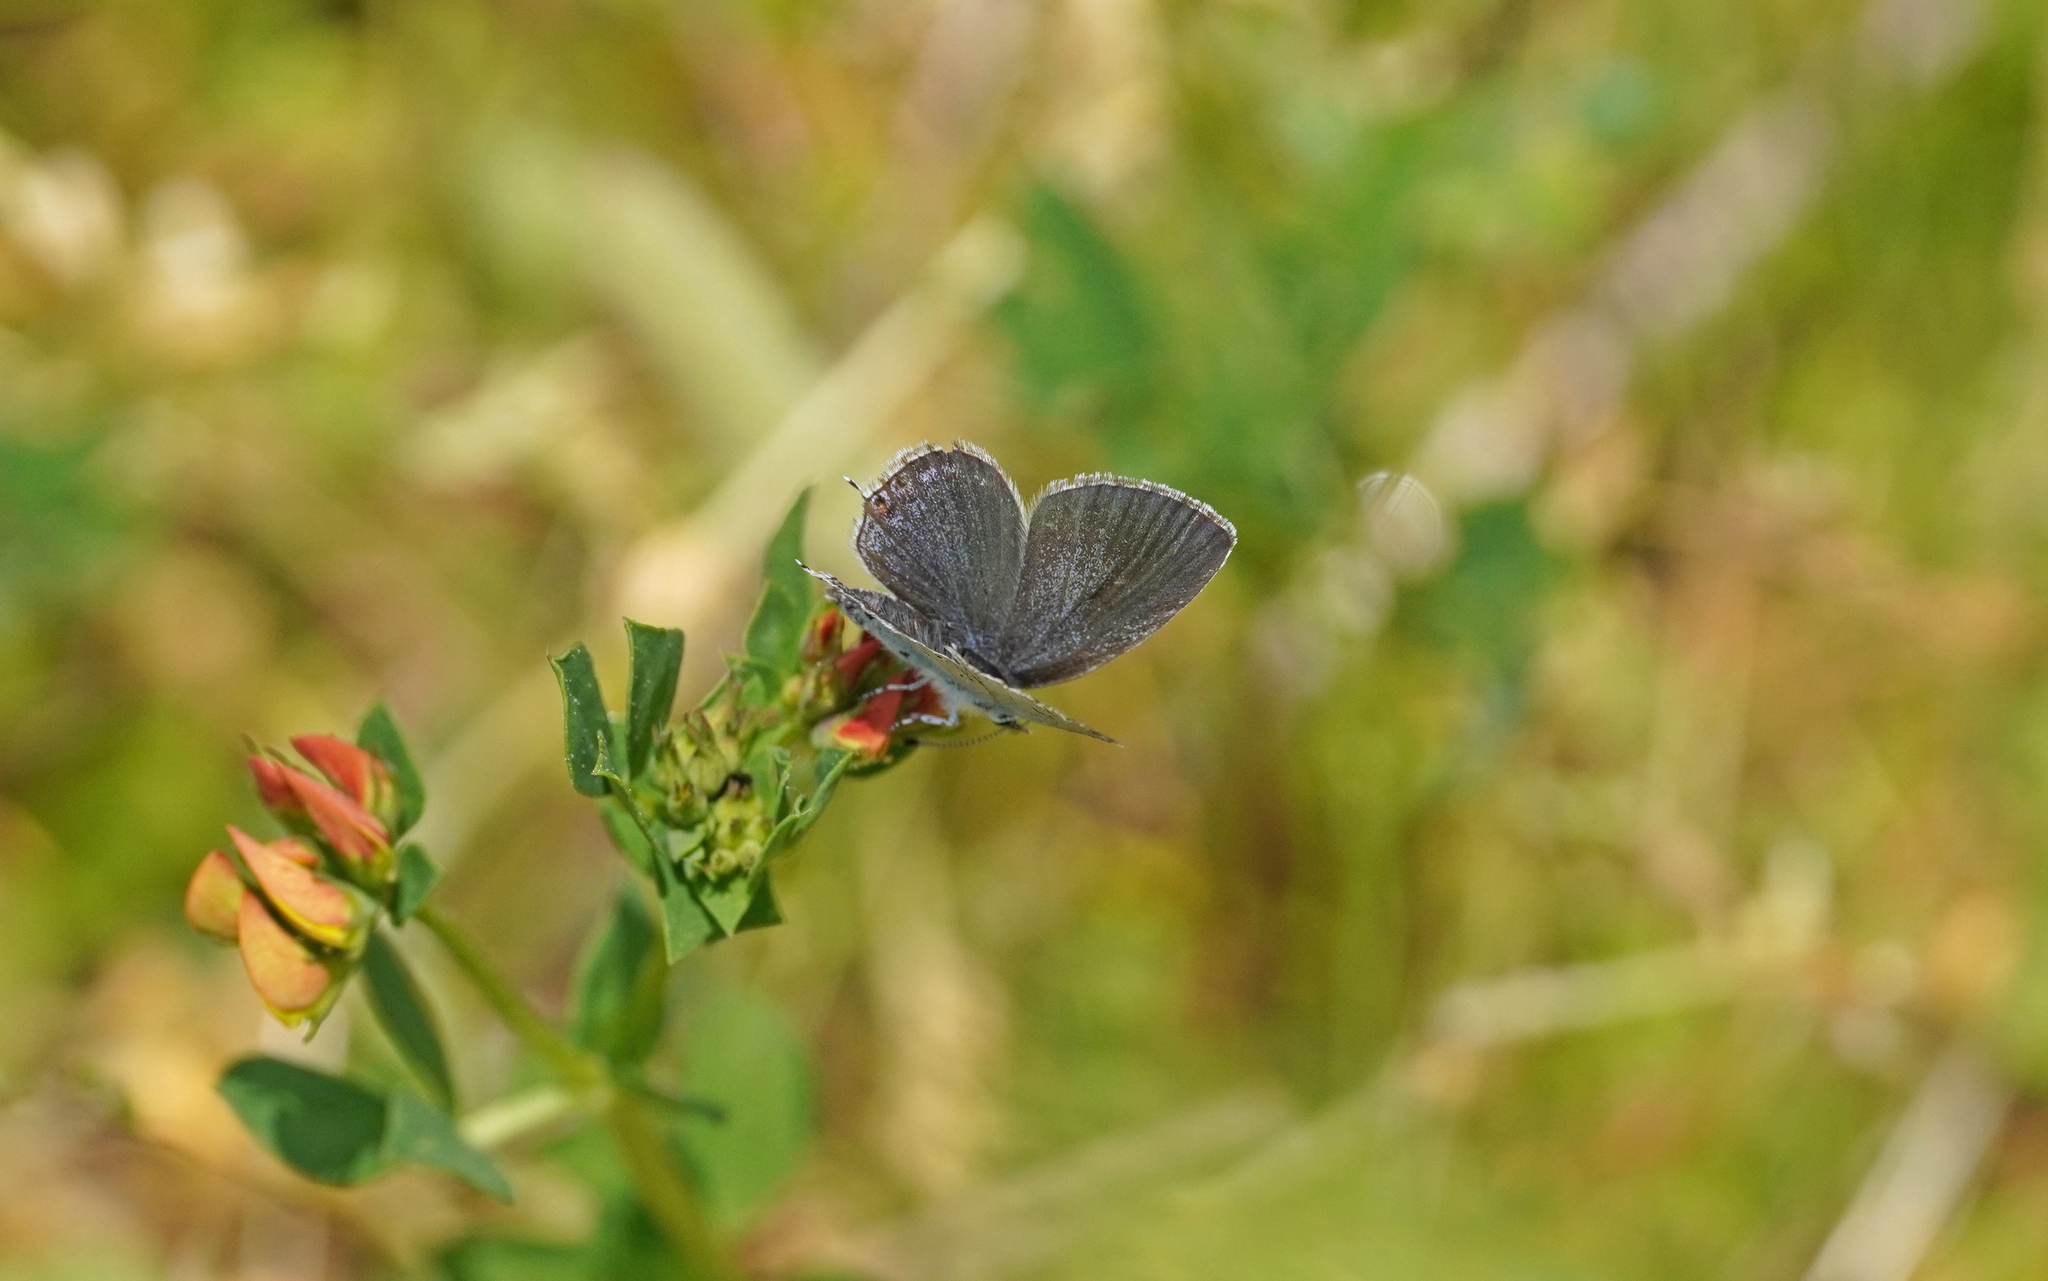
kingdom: Animalia
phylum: Arthropoda
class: Insecta
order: Lepidoptera
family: Lycaenidae
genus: Elkalyce
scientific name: Elkalyce argiades
